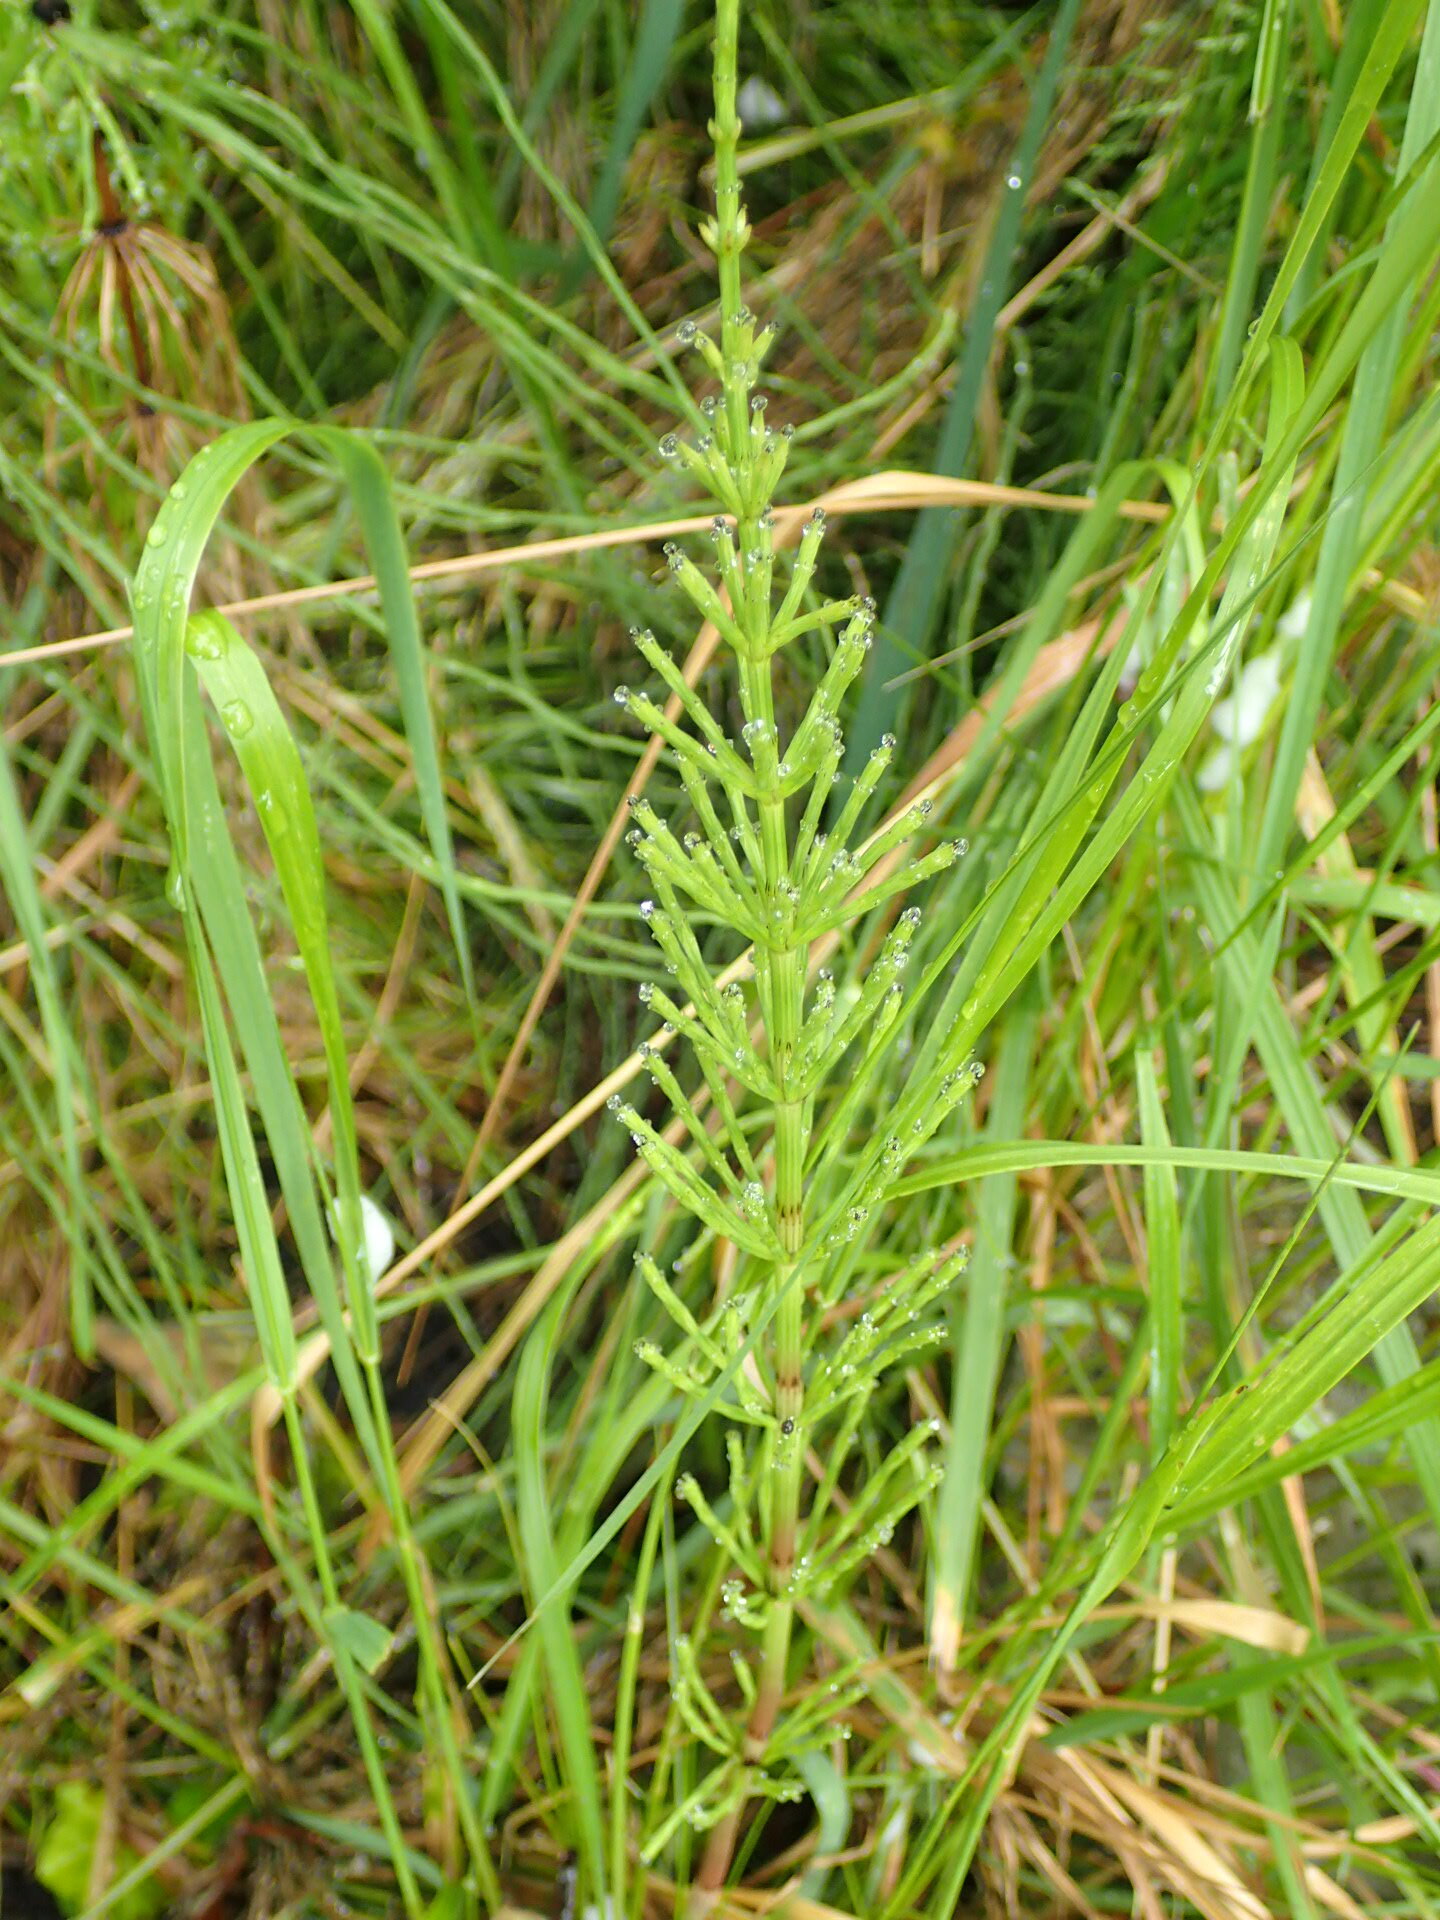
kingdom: Plantae
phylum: Tracheophyta
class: Polypodiopsida
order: Equisetales
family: Equisetaceae
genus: Equisetum
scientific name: Equisetum arvense
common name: Field horsetail
